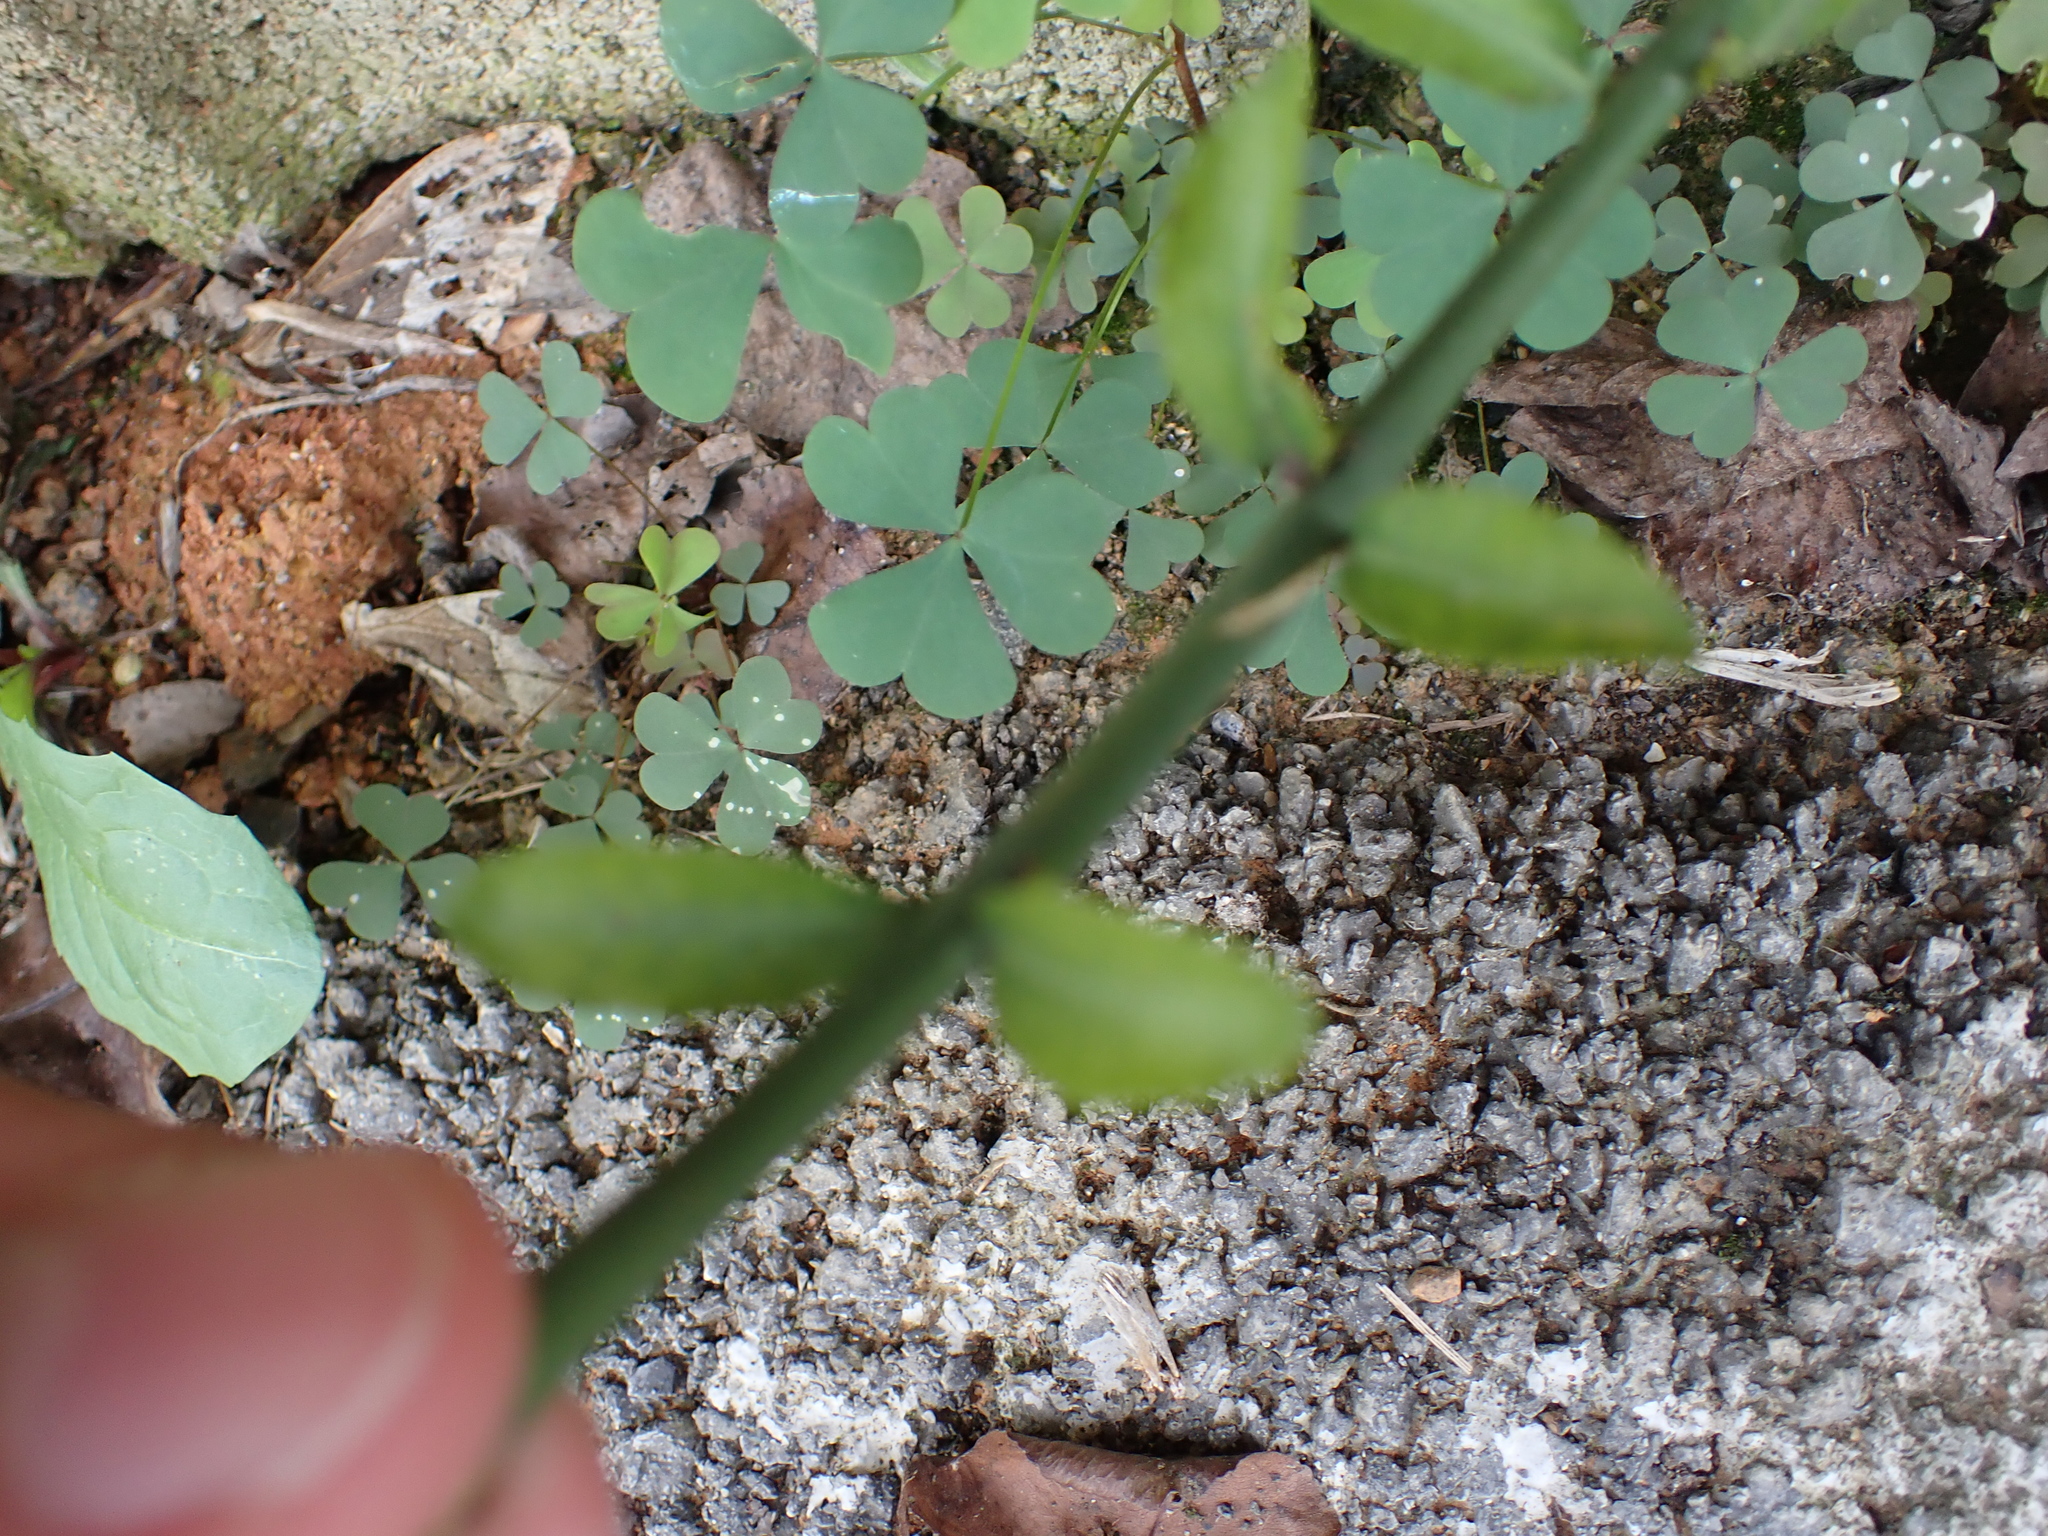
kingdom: Plantae
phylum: Tracheophyta
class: Magnoliopsida
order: Celastrales
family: Celastraceae
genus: Euonymus
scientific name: Euonymus fortunei
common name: Climbing euonymus
